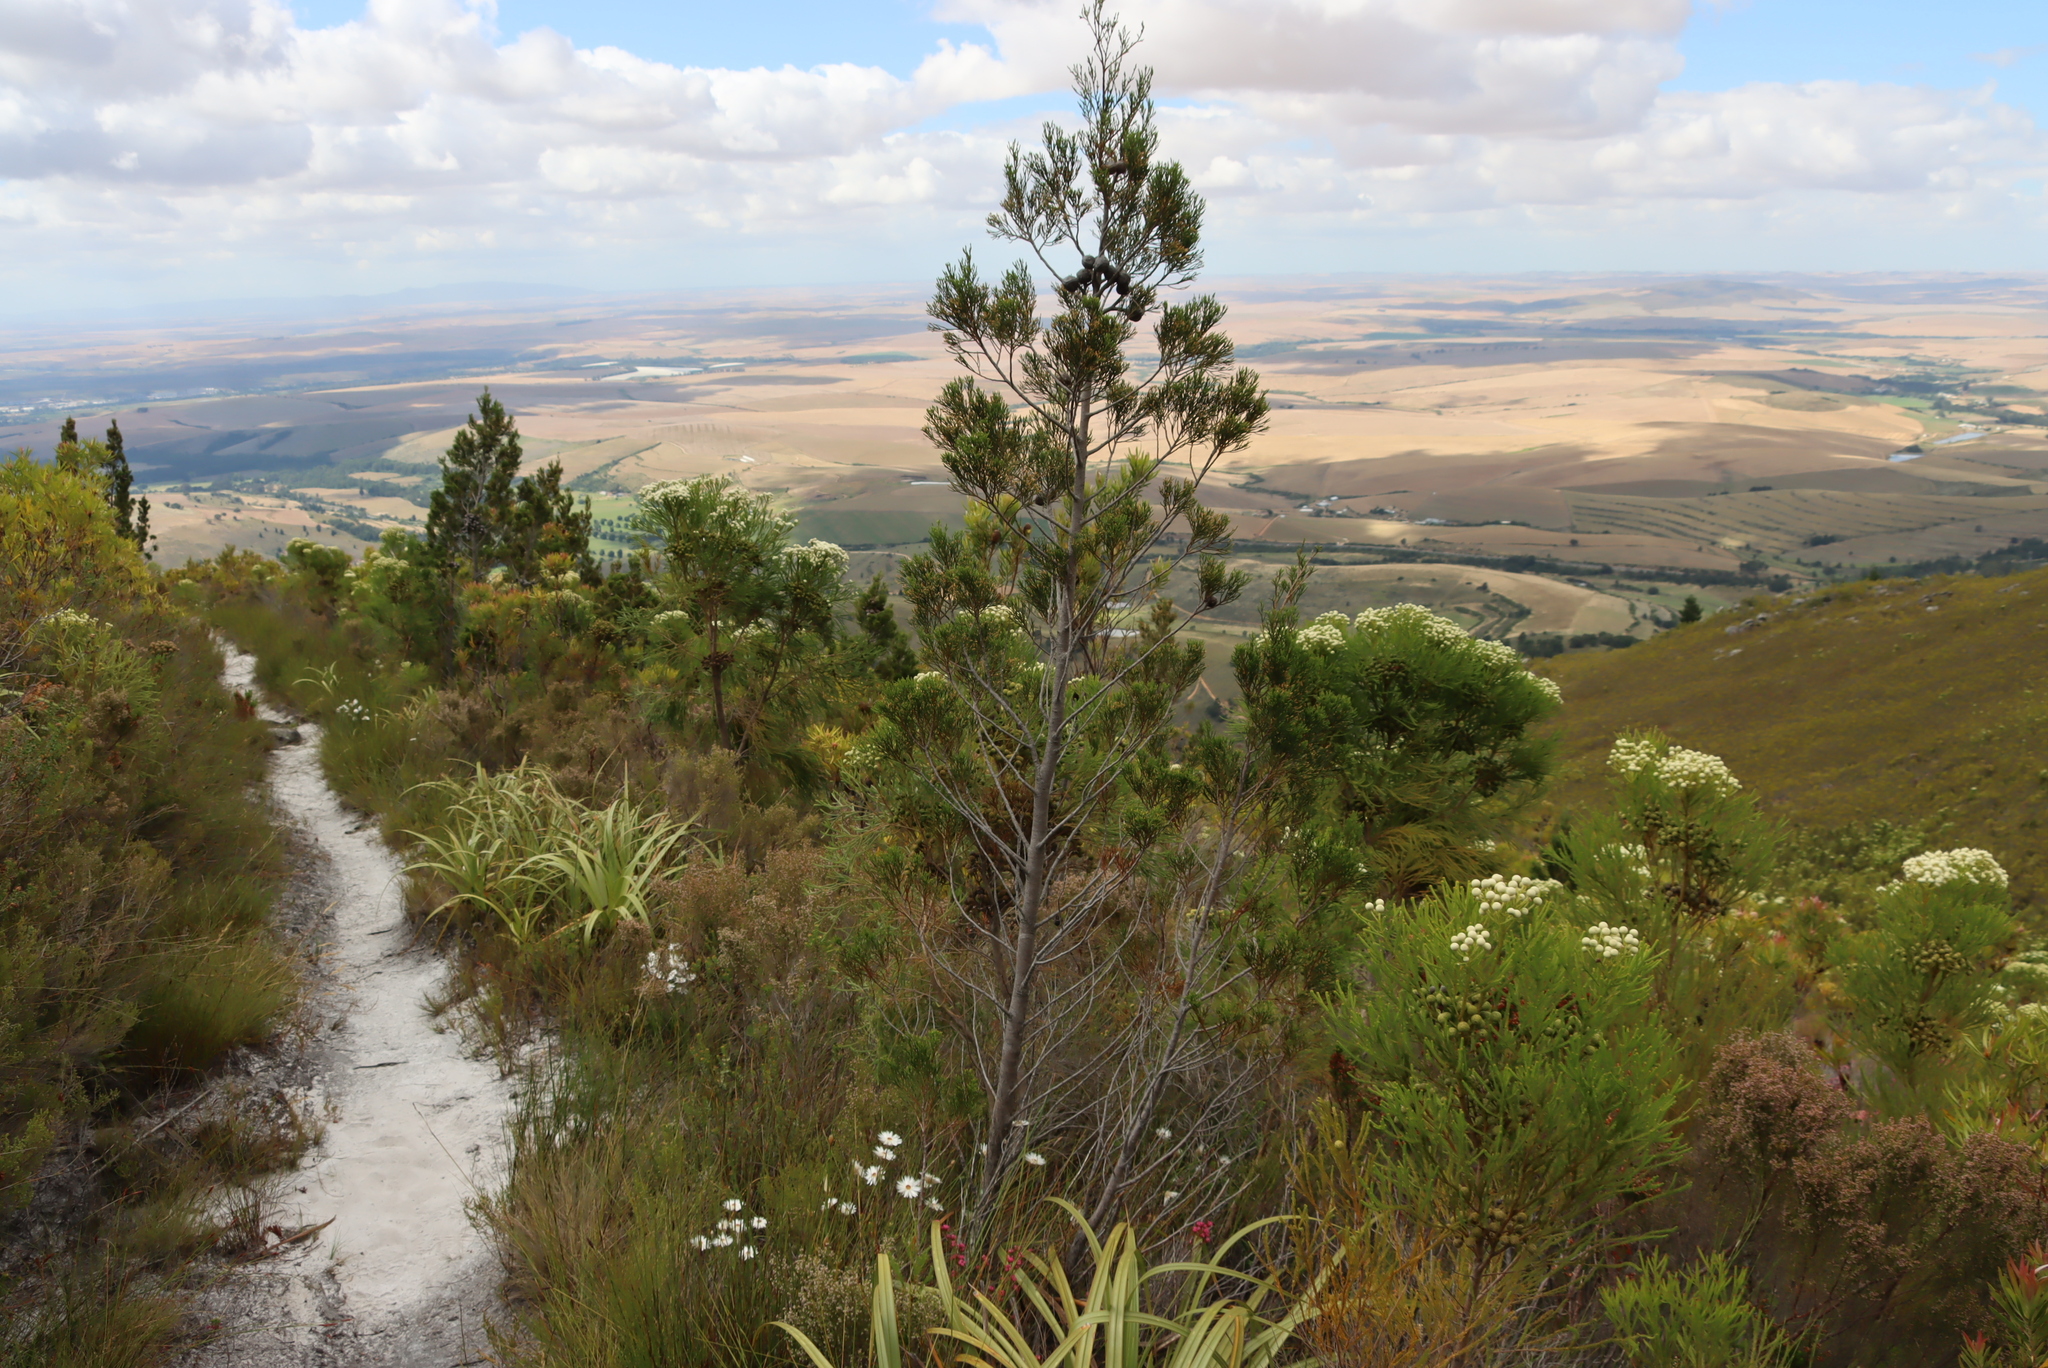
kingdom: Plantae
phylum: Tracheophyta
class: Pinopsida
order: Pinales
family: Cupressaceae
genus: Widdringtonia
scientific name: Widdringtonia nodiflora
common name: Cape cypress
